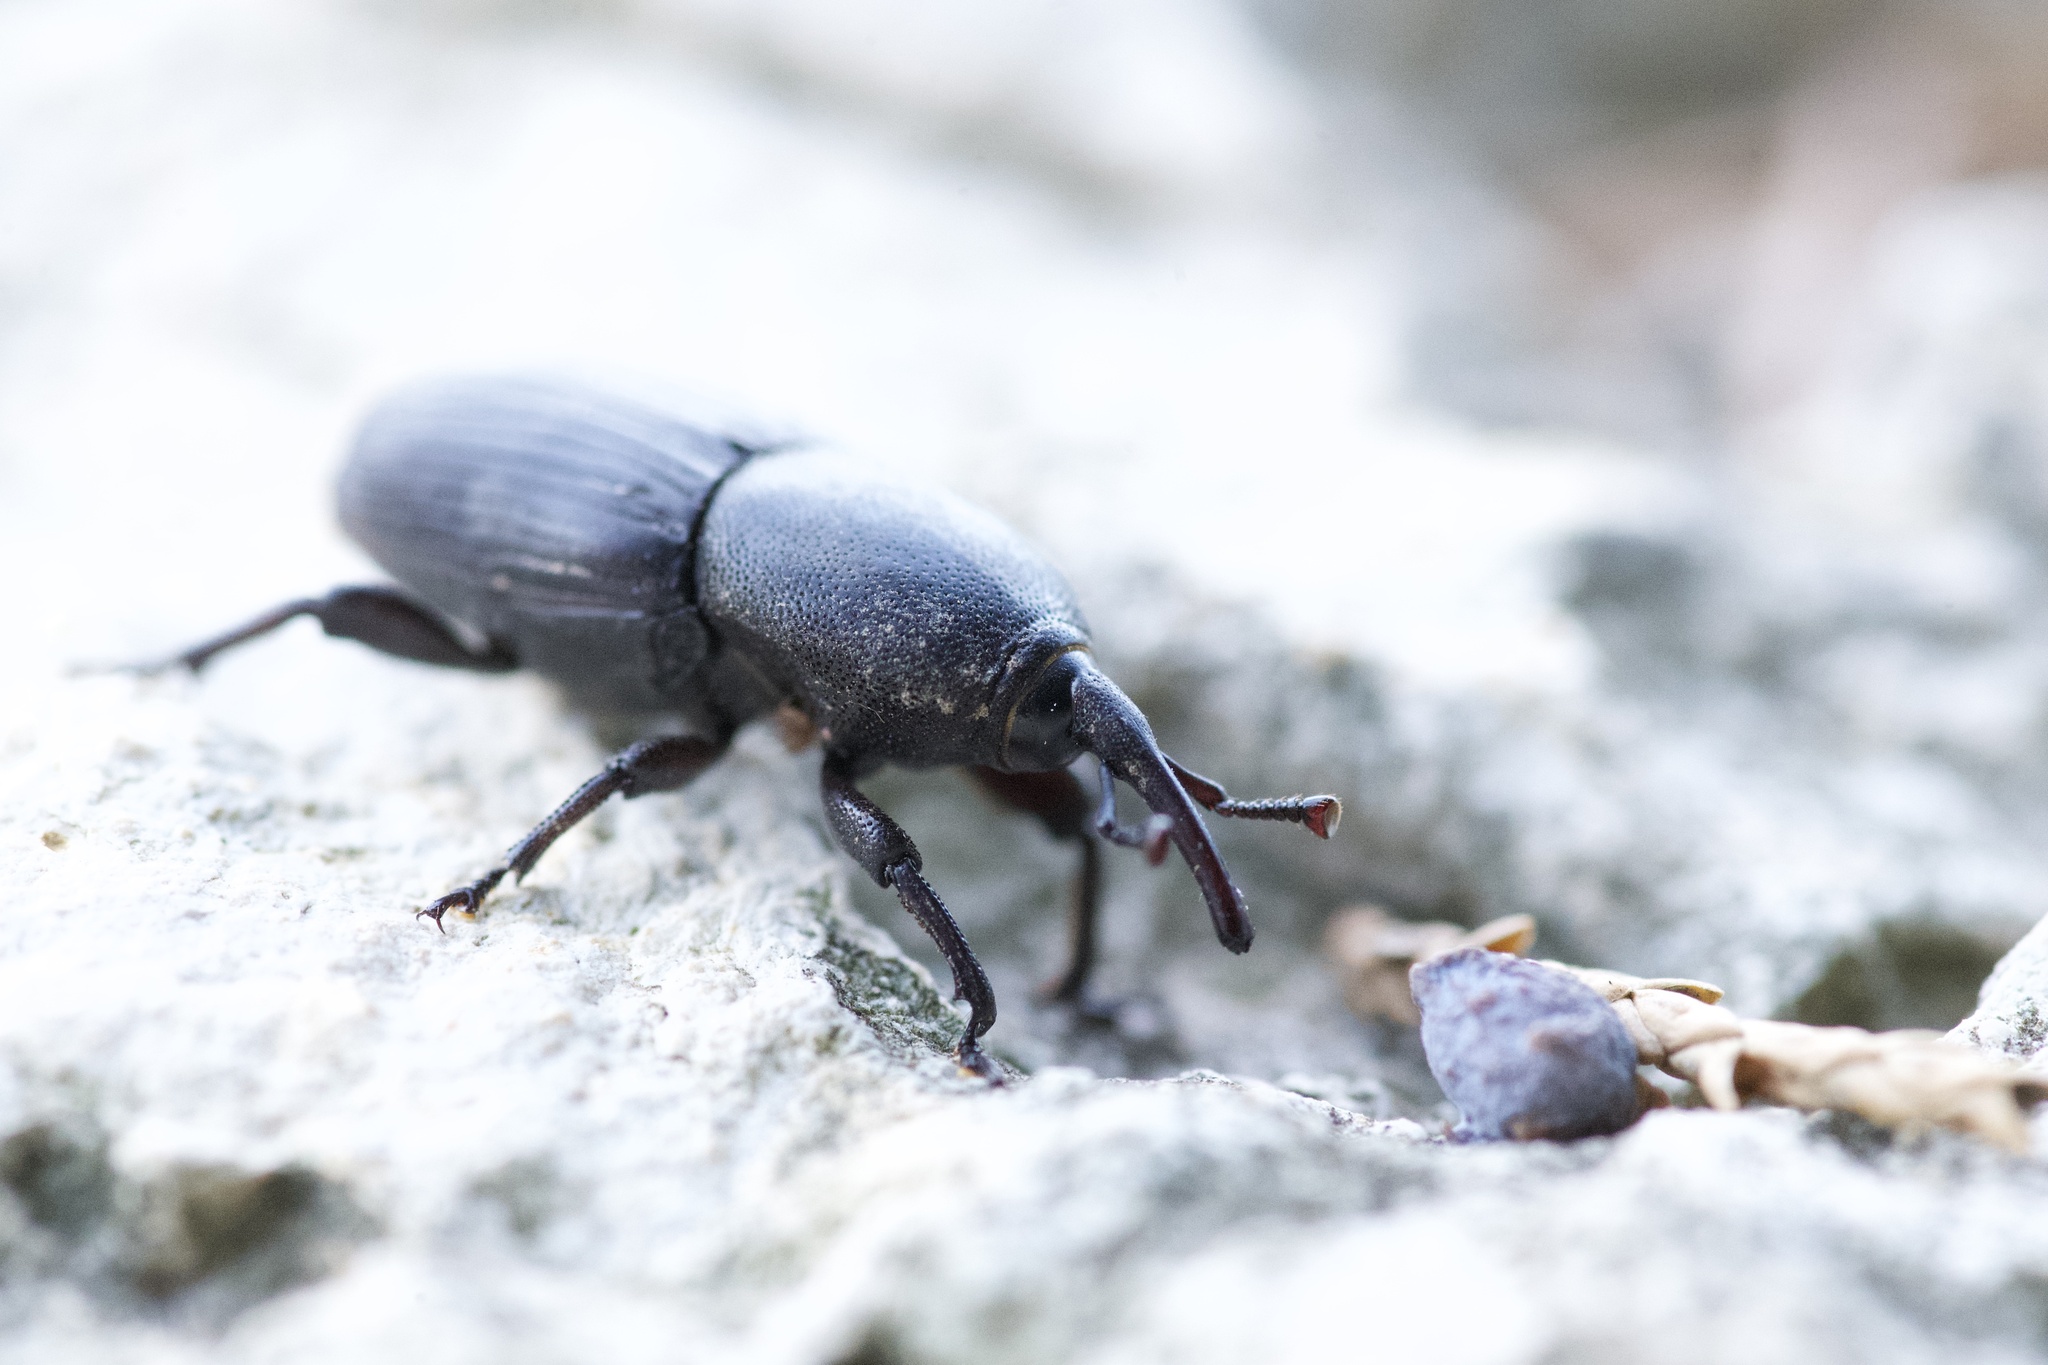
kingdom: Animalia
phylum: Arthropoda
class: Insecta
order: Coleoptera
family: Dryophthoridae
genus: Scyphophorus
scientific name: Scyphophorus acupunctatus
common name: Weevil
